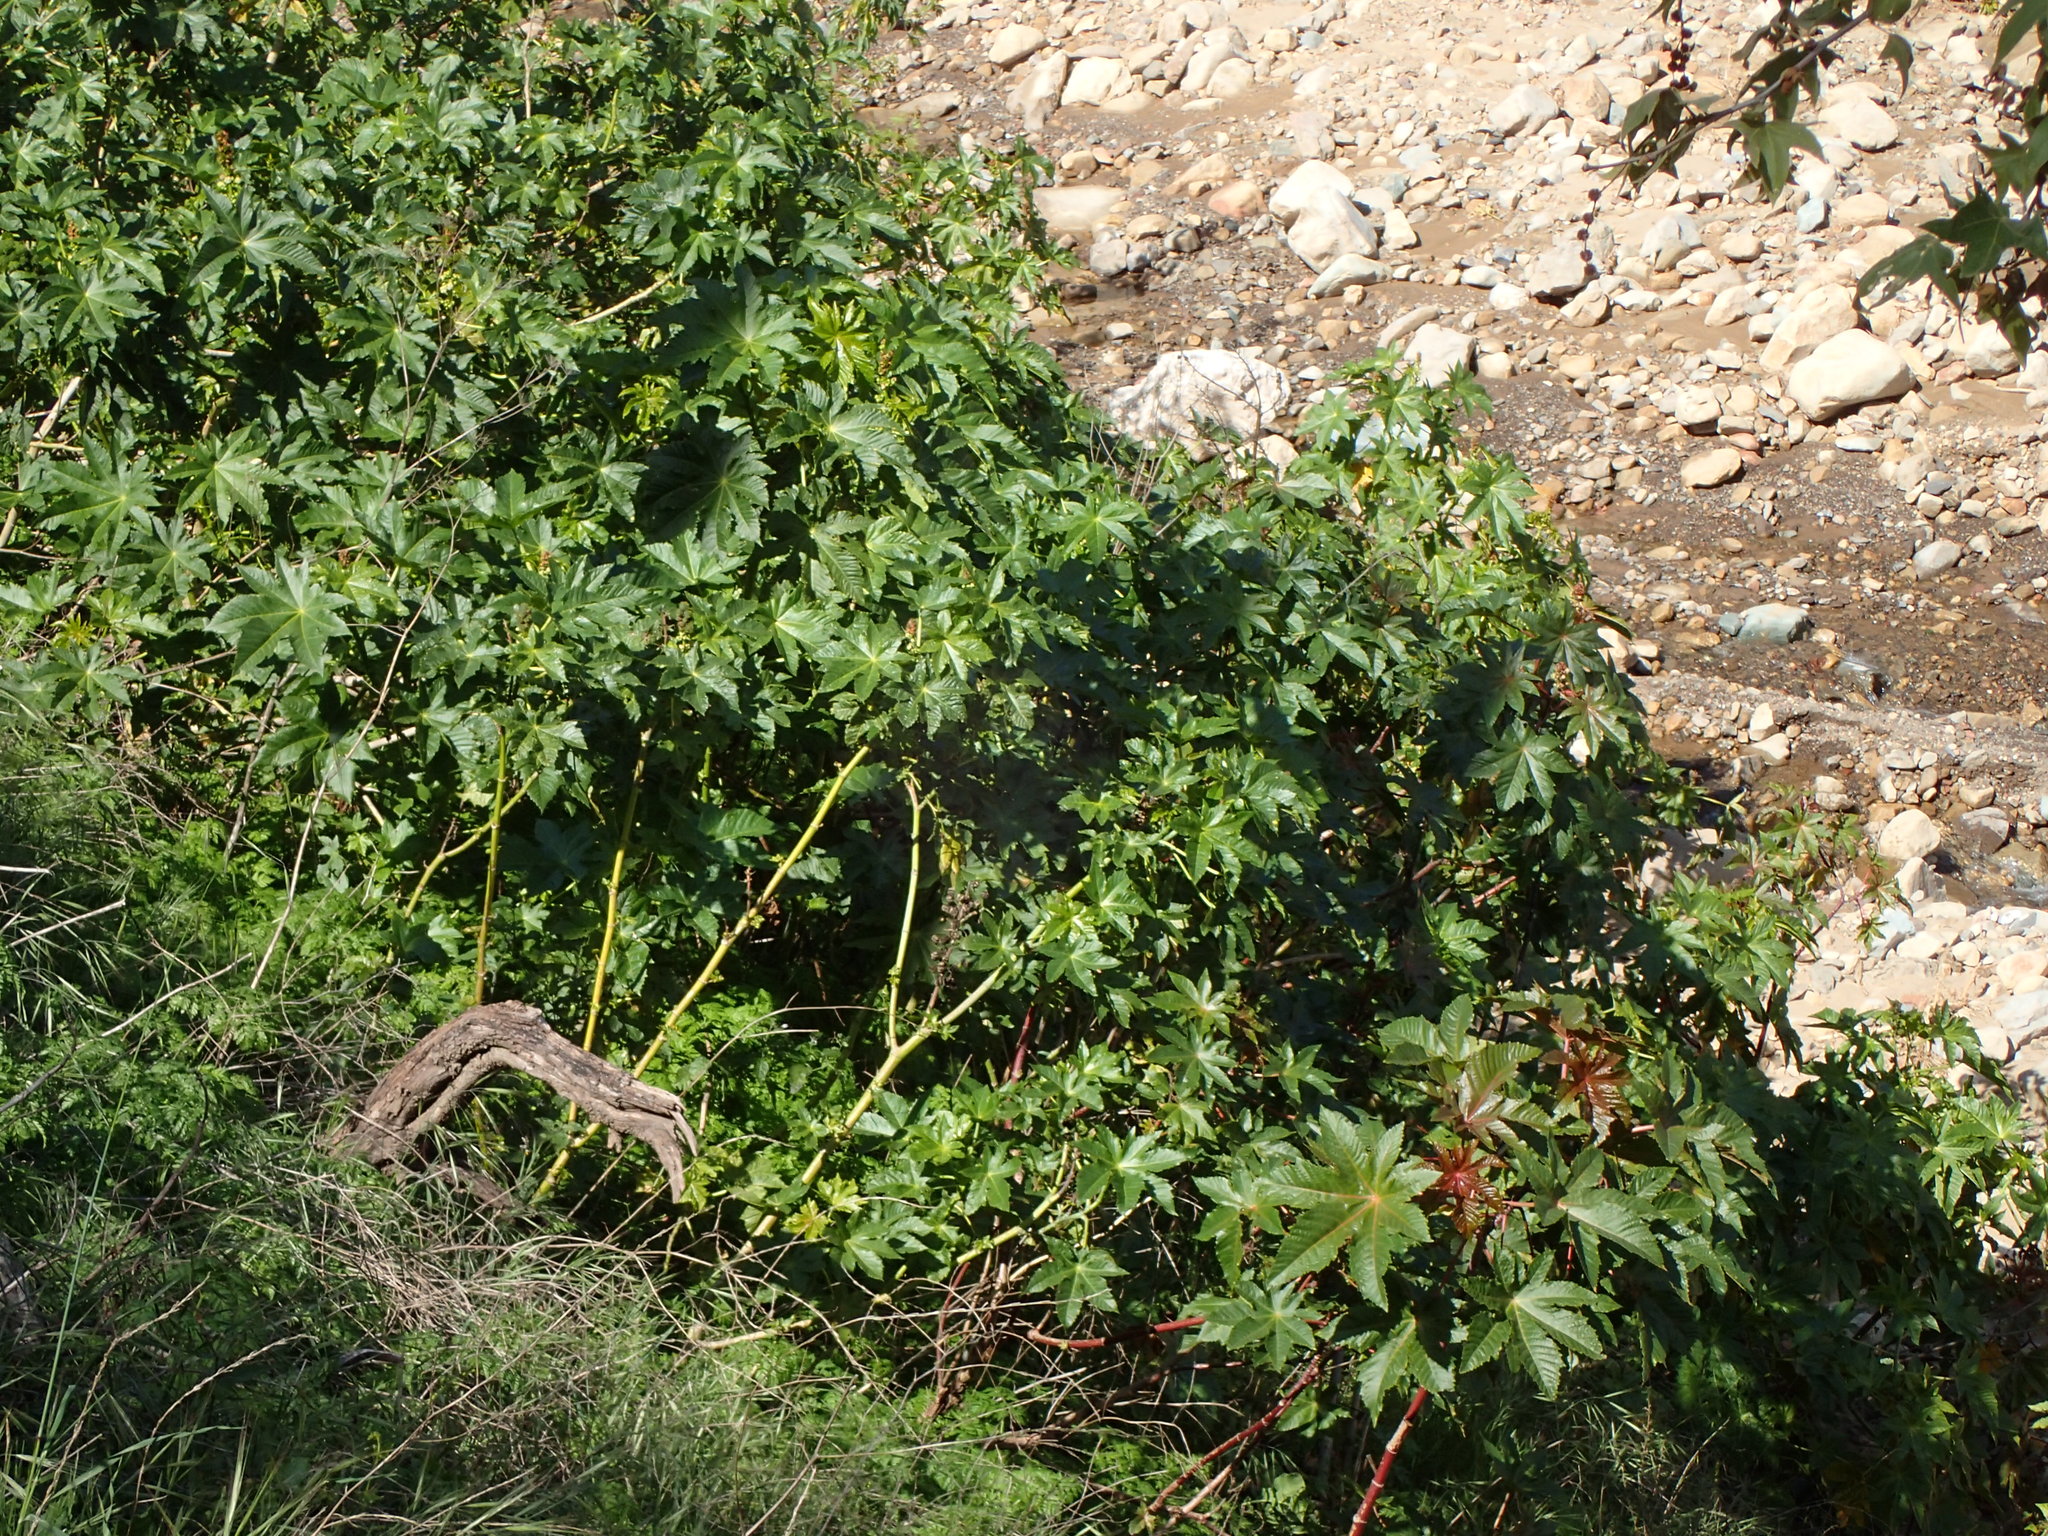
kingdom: Plantae
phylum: Tracheophyta
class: Magnoliopsida
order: Malpighiales
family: Euphorbiaceae
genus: Ricinus
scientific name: Ricinus communis
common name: Castor-oil-plant
